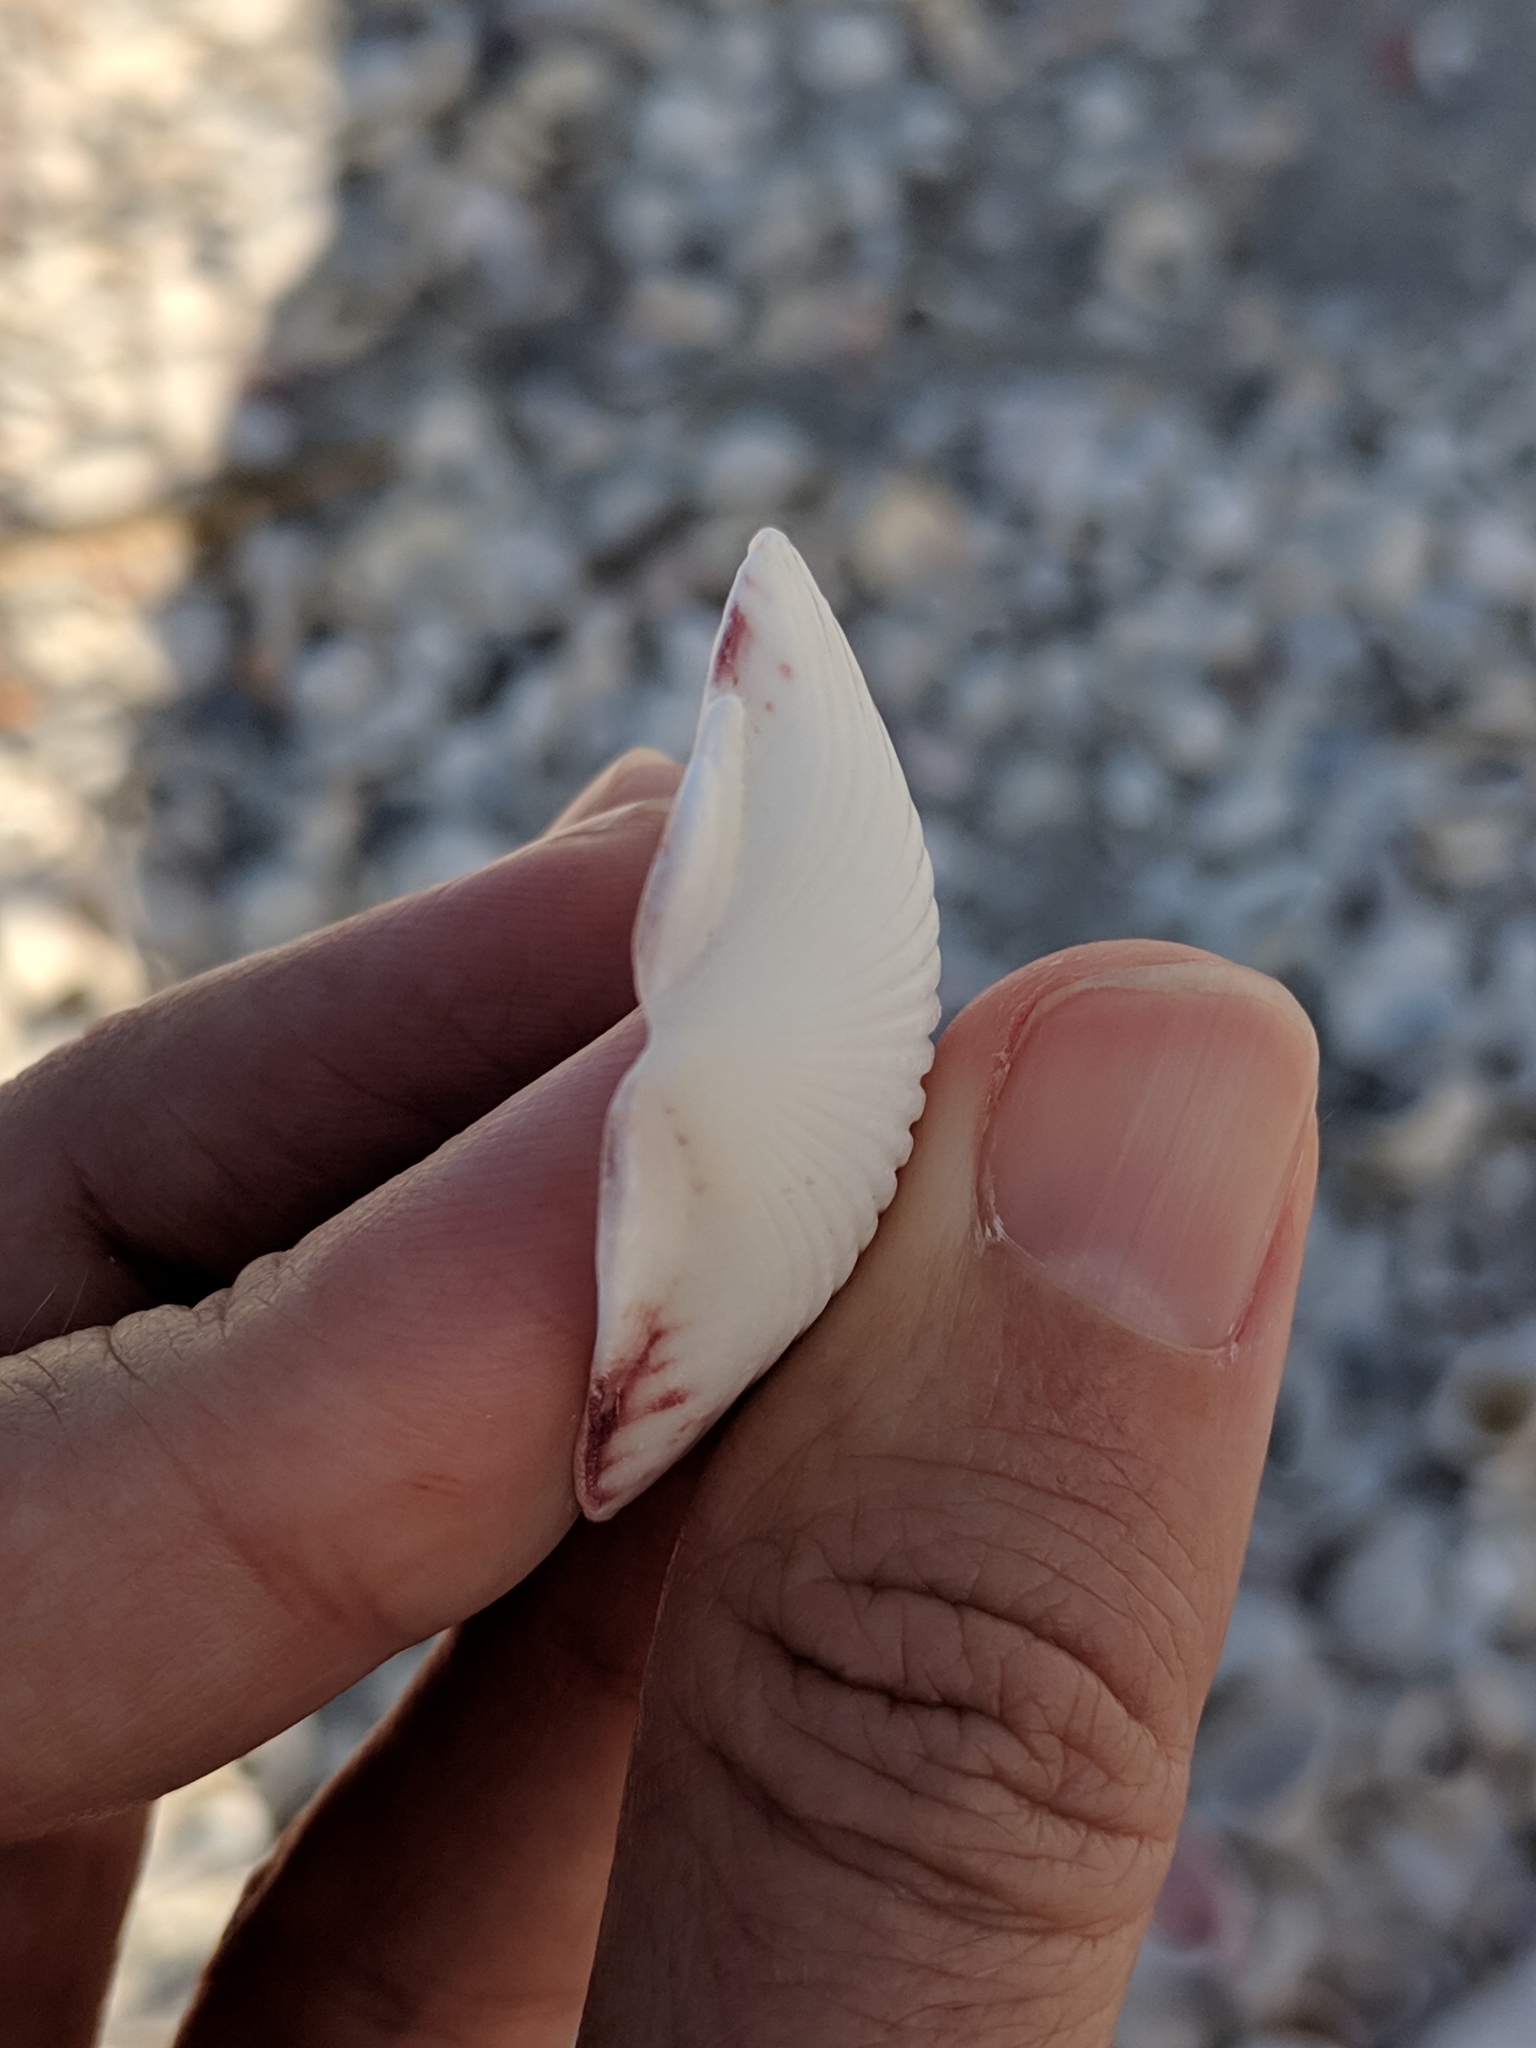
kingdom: Animalia
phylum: Mollusca
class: Bivalvia
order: Pectinida
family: Pectinidae
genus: Argopecten
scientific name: Argopecten gibbus
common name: Atlantic calico scallop
